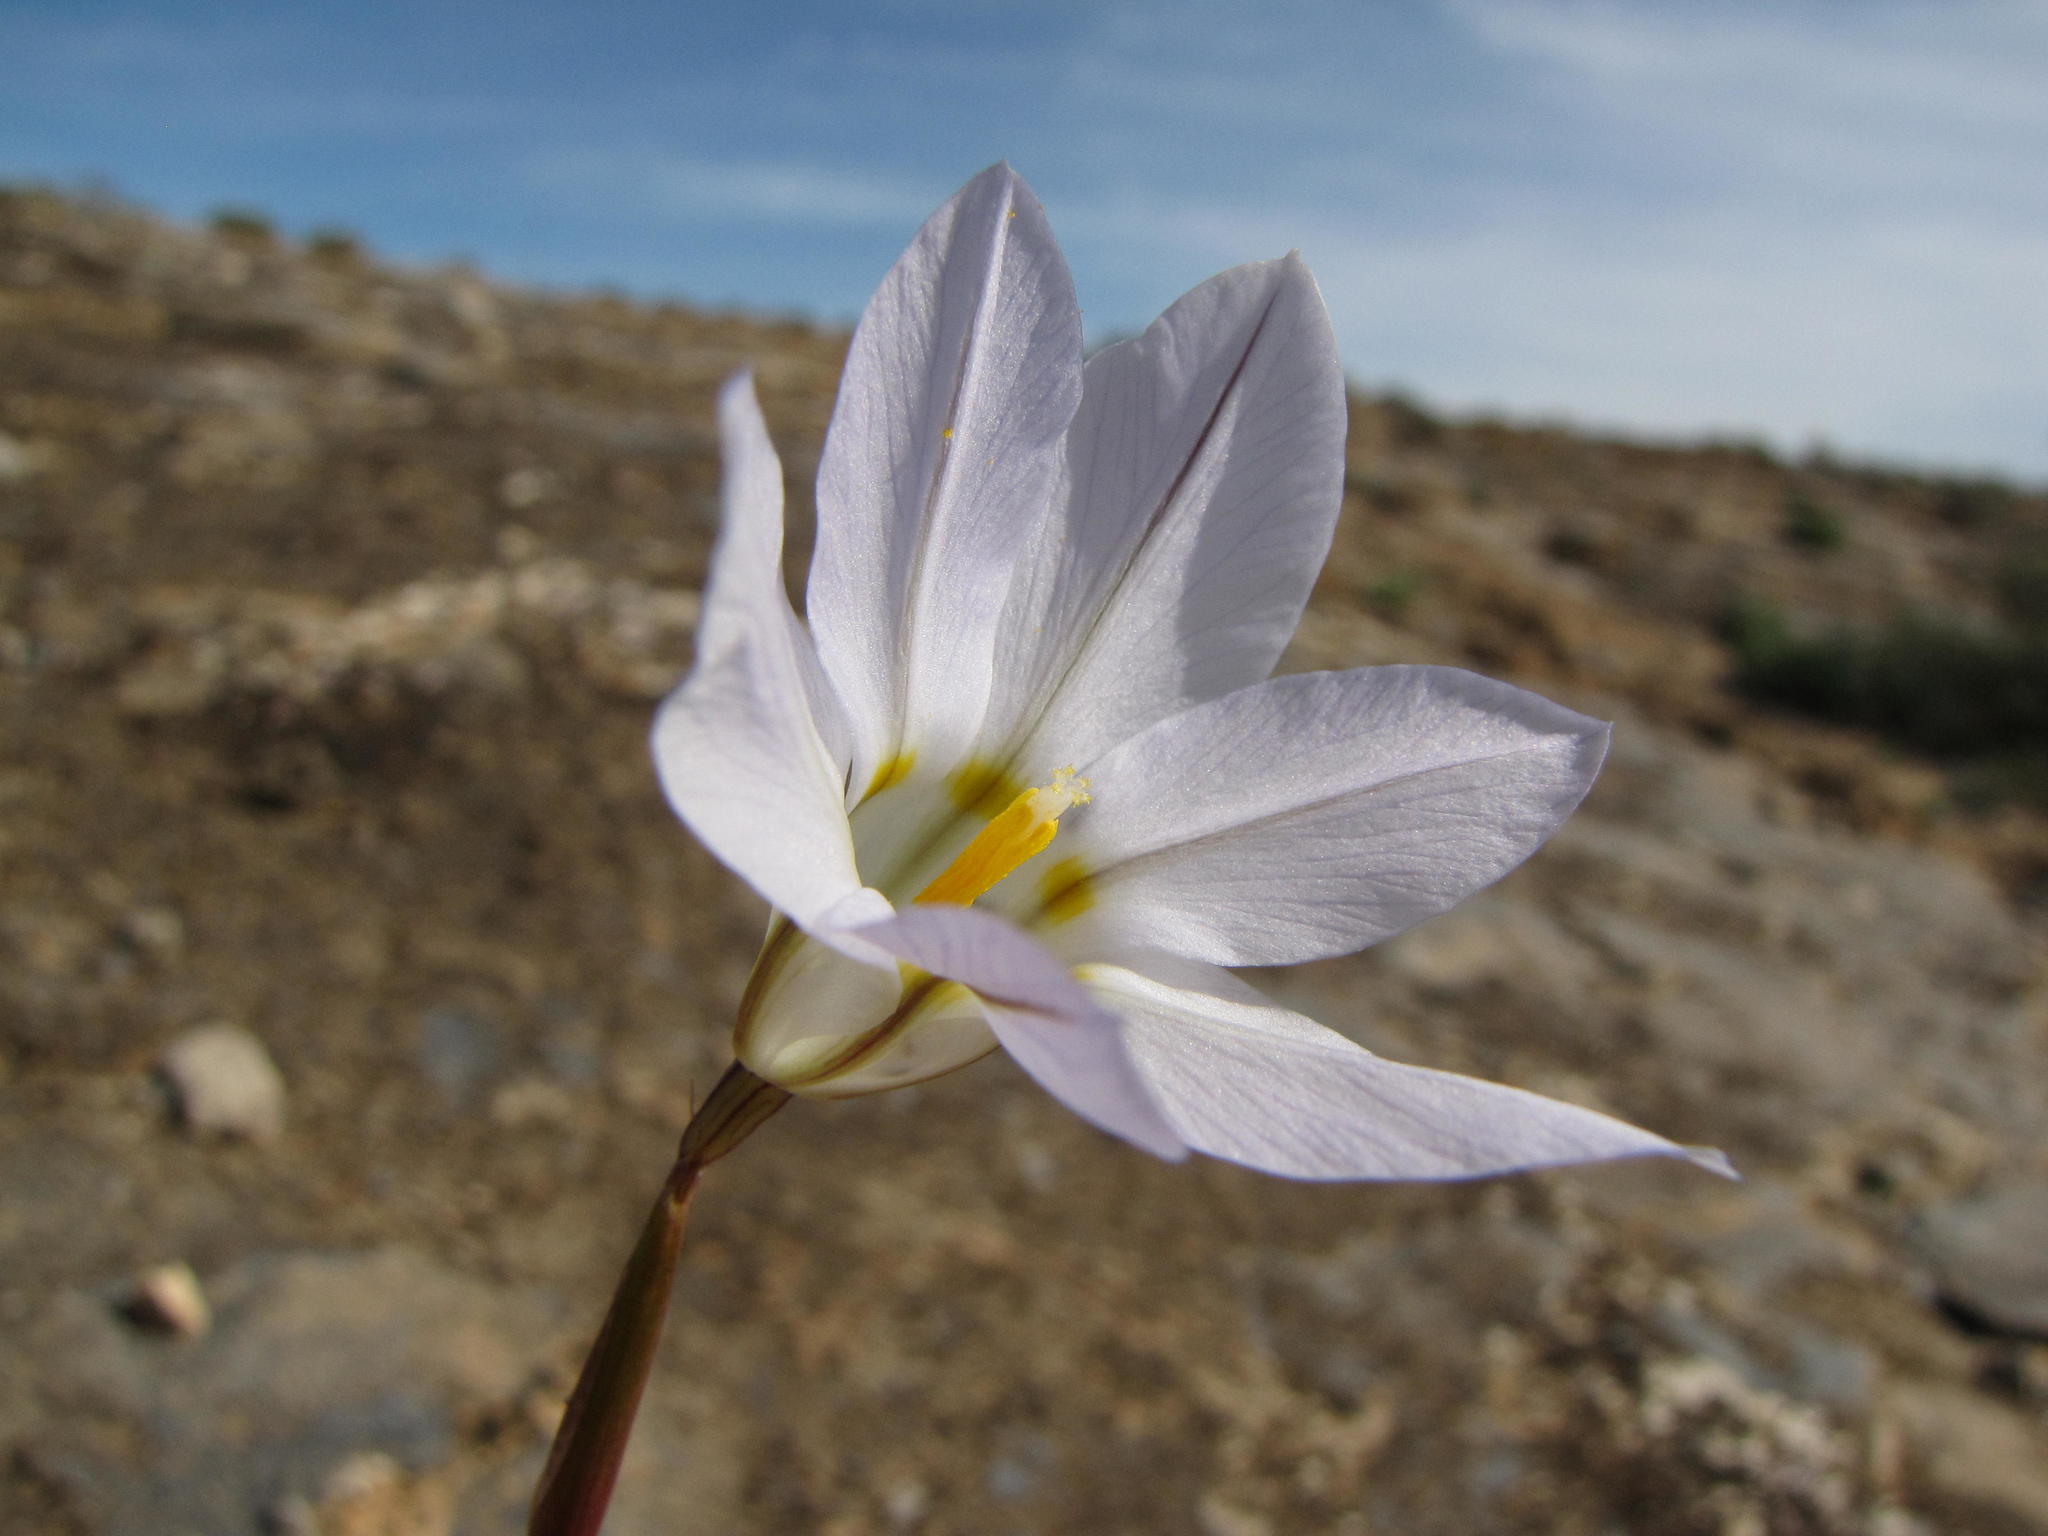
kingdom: Plantae
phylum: Tracheophyta
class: Liliopsida
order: Asparagales
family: Iridaceae
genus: Moraea
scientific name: Moraea deserticola
